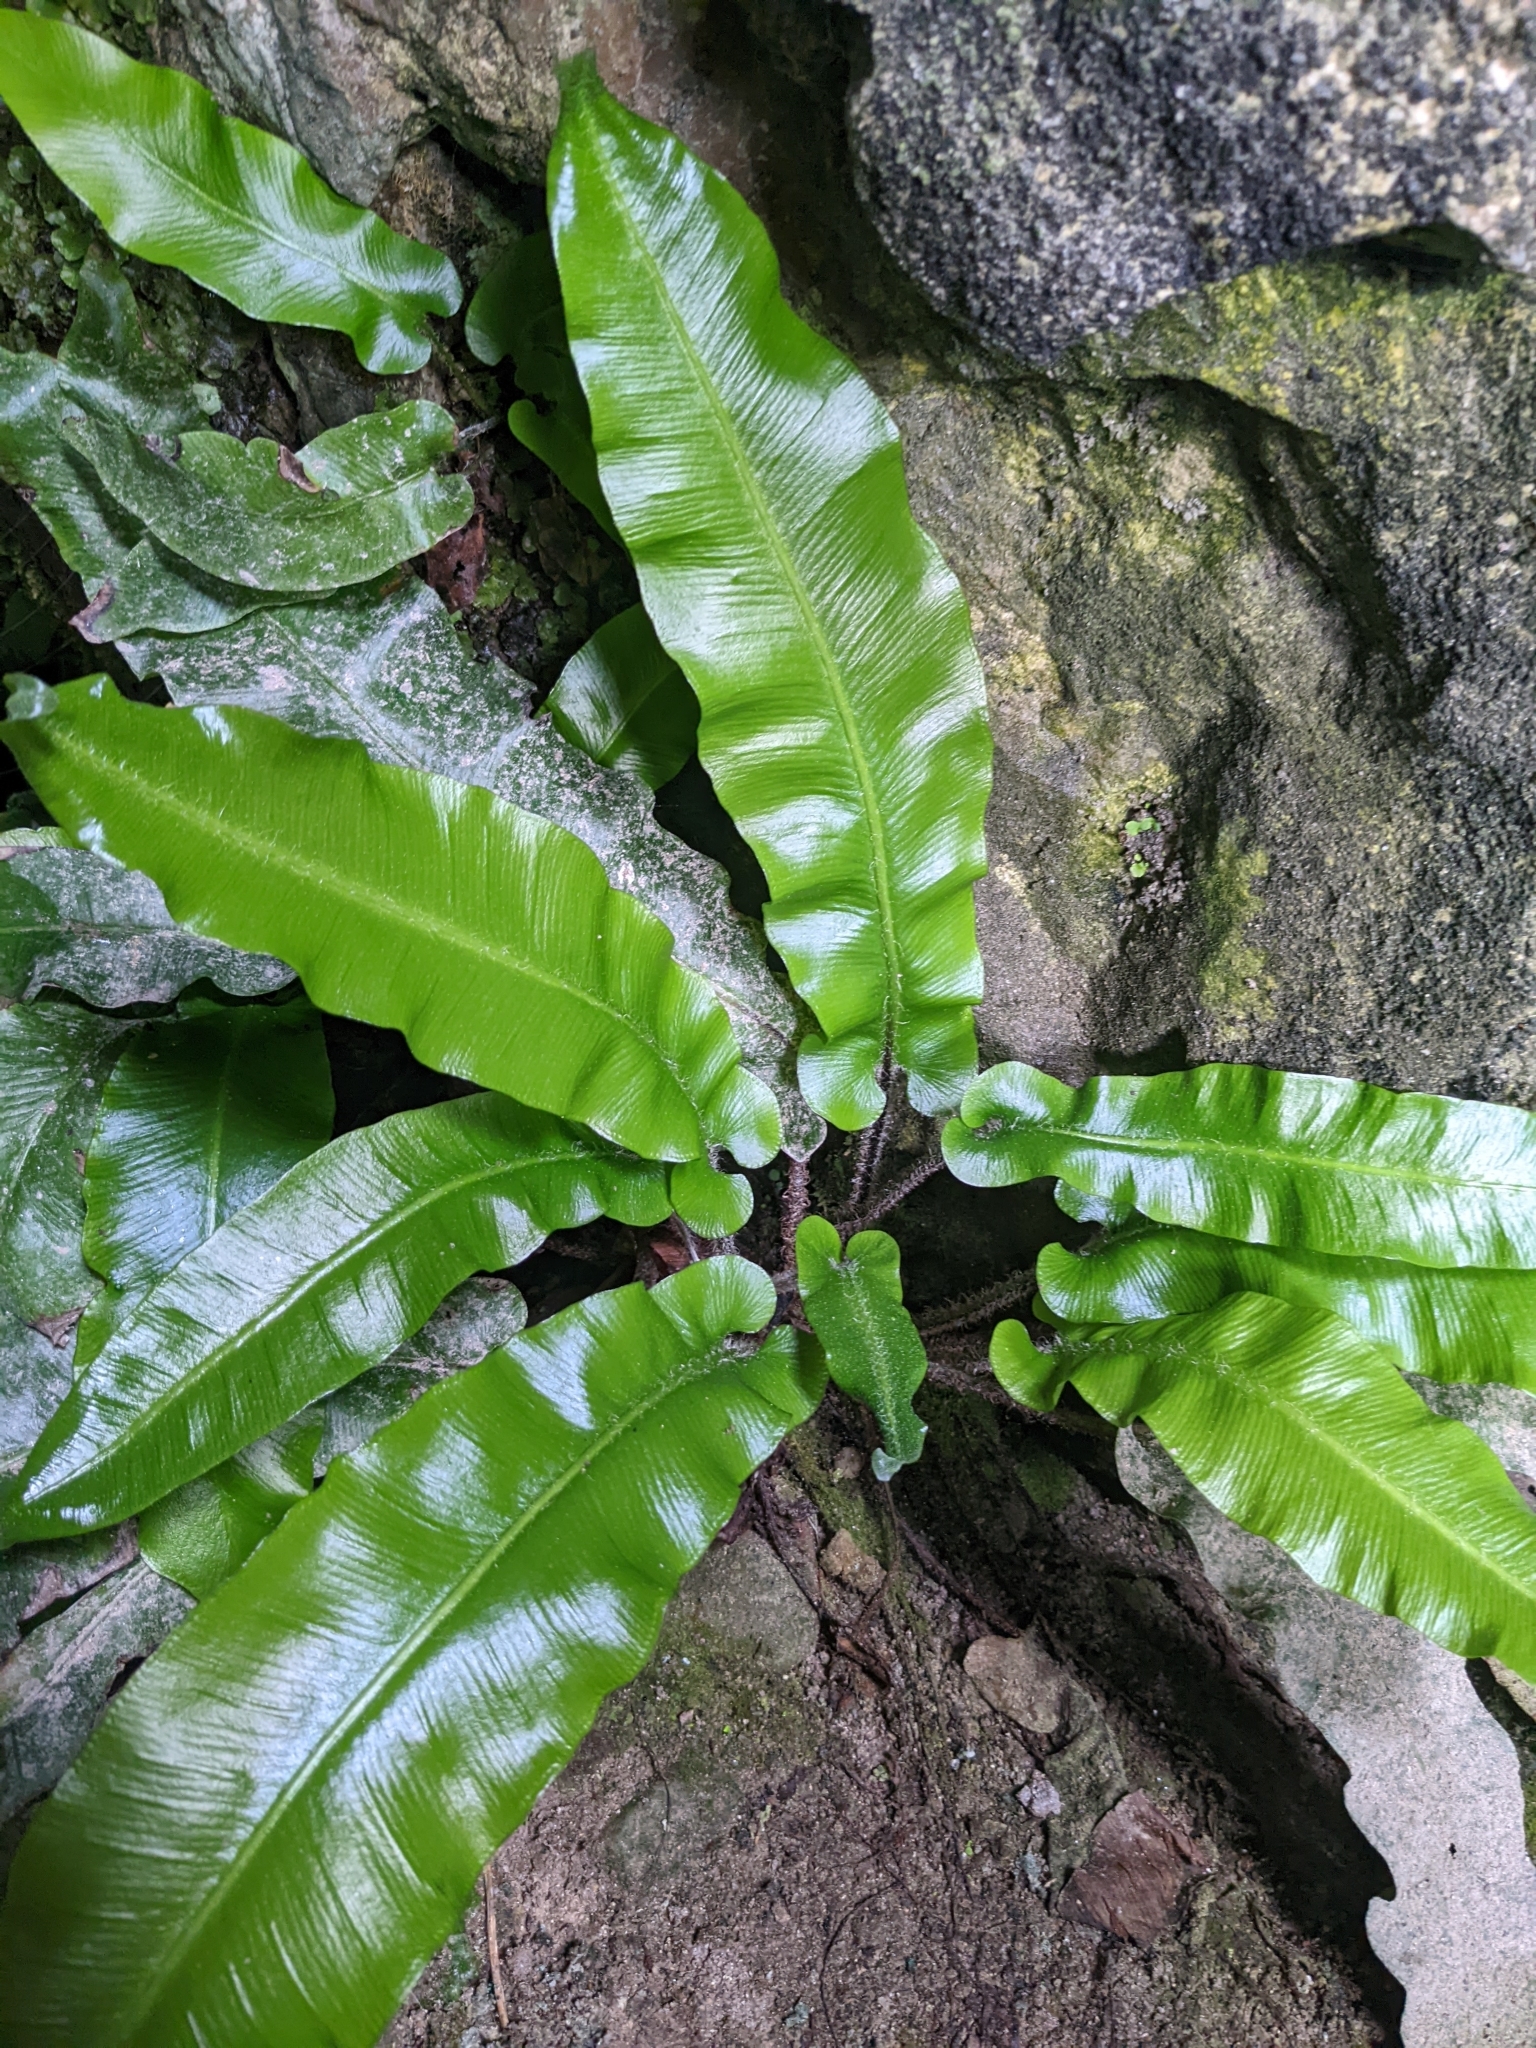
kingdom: Plantae
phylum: Tracheophyta
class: Polypodiopsida
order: Polypodiales
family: Aspleniaceae
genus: Asplenium
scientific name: Asplenium scolopendrium
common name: Hart's-tongue fern
